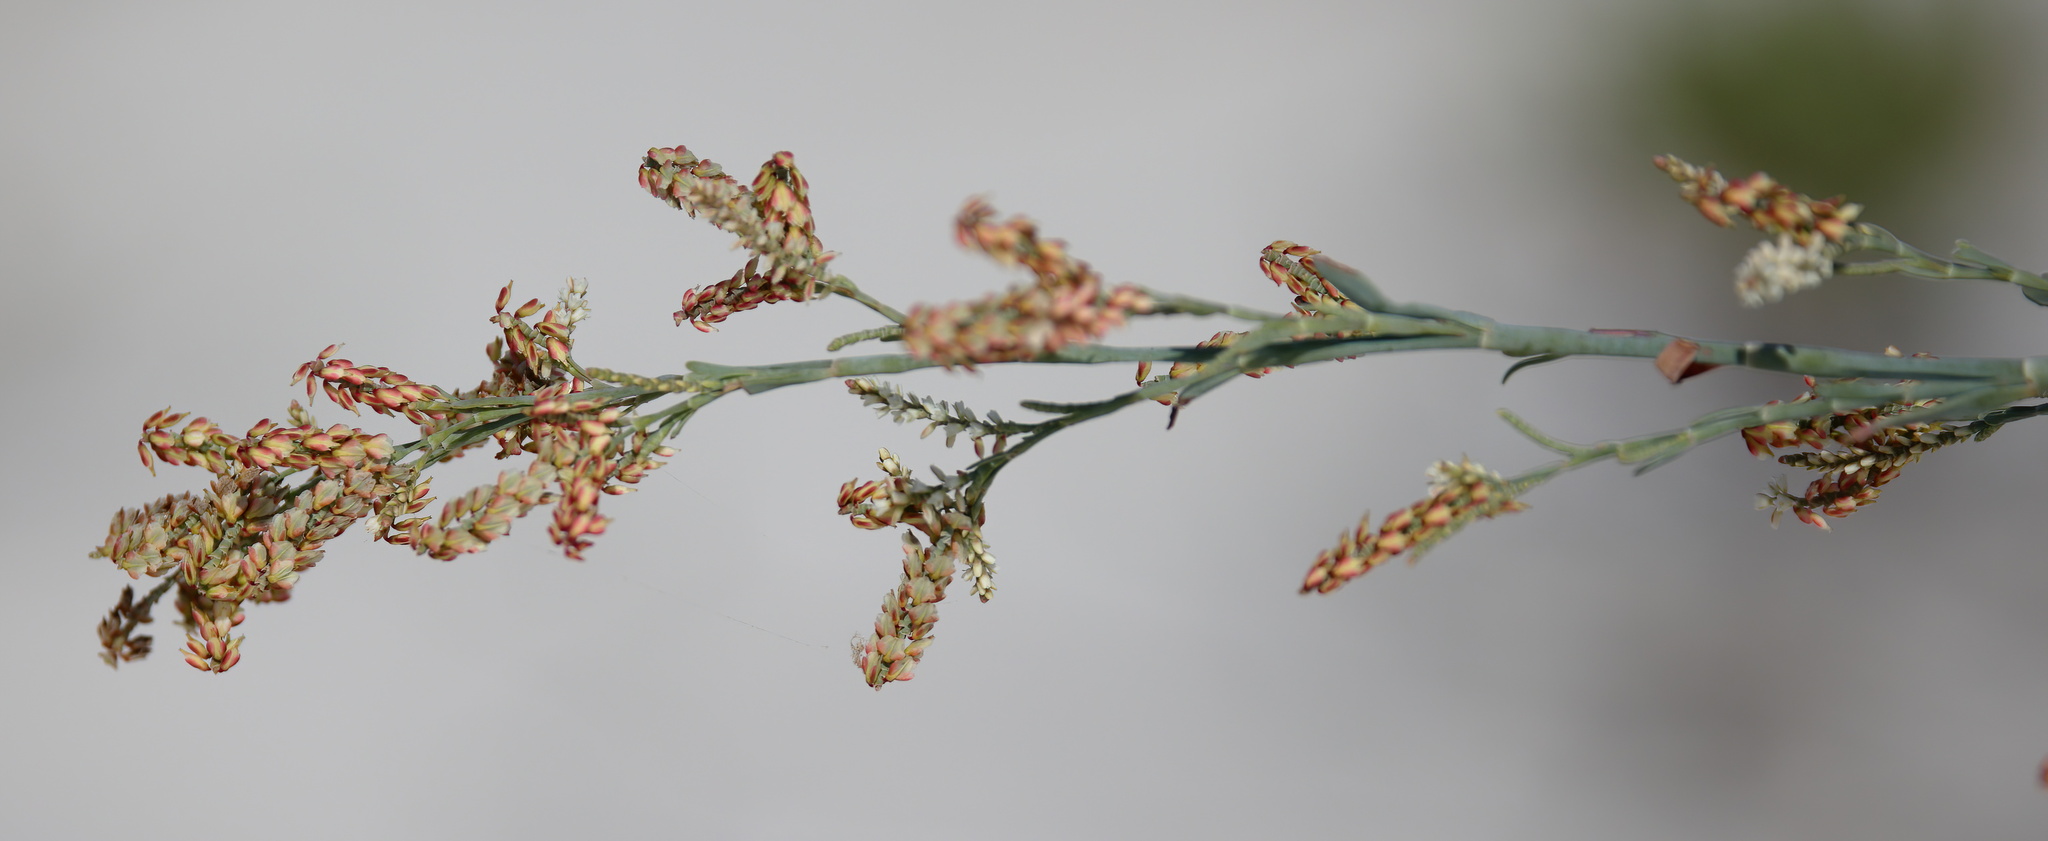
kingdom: Plantae
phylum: Tracheophyta
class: Magnoliopsida
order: Caryophyllales
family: Polygonaceae
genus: Polygonella
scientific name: Polygonella gracilis
